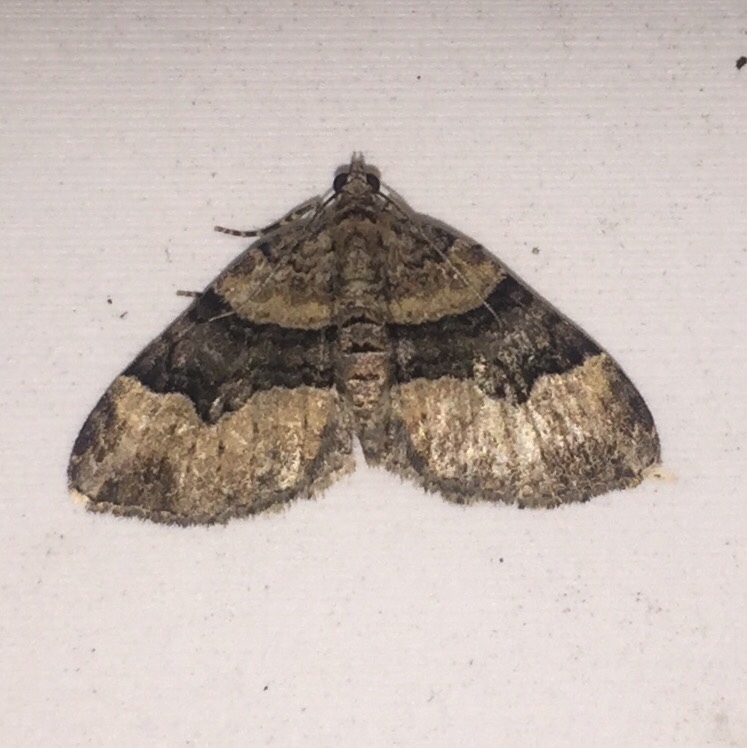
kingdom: Animalia
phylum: Arthropoda
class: Insecta
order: Lepidoptera
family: Geometridae
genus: Xanthorhoe
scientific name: Xanthorhoe lacustrata
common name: Toothed brown carpet
